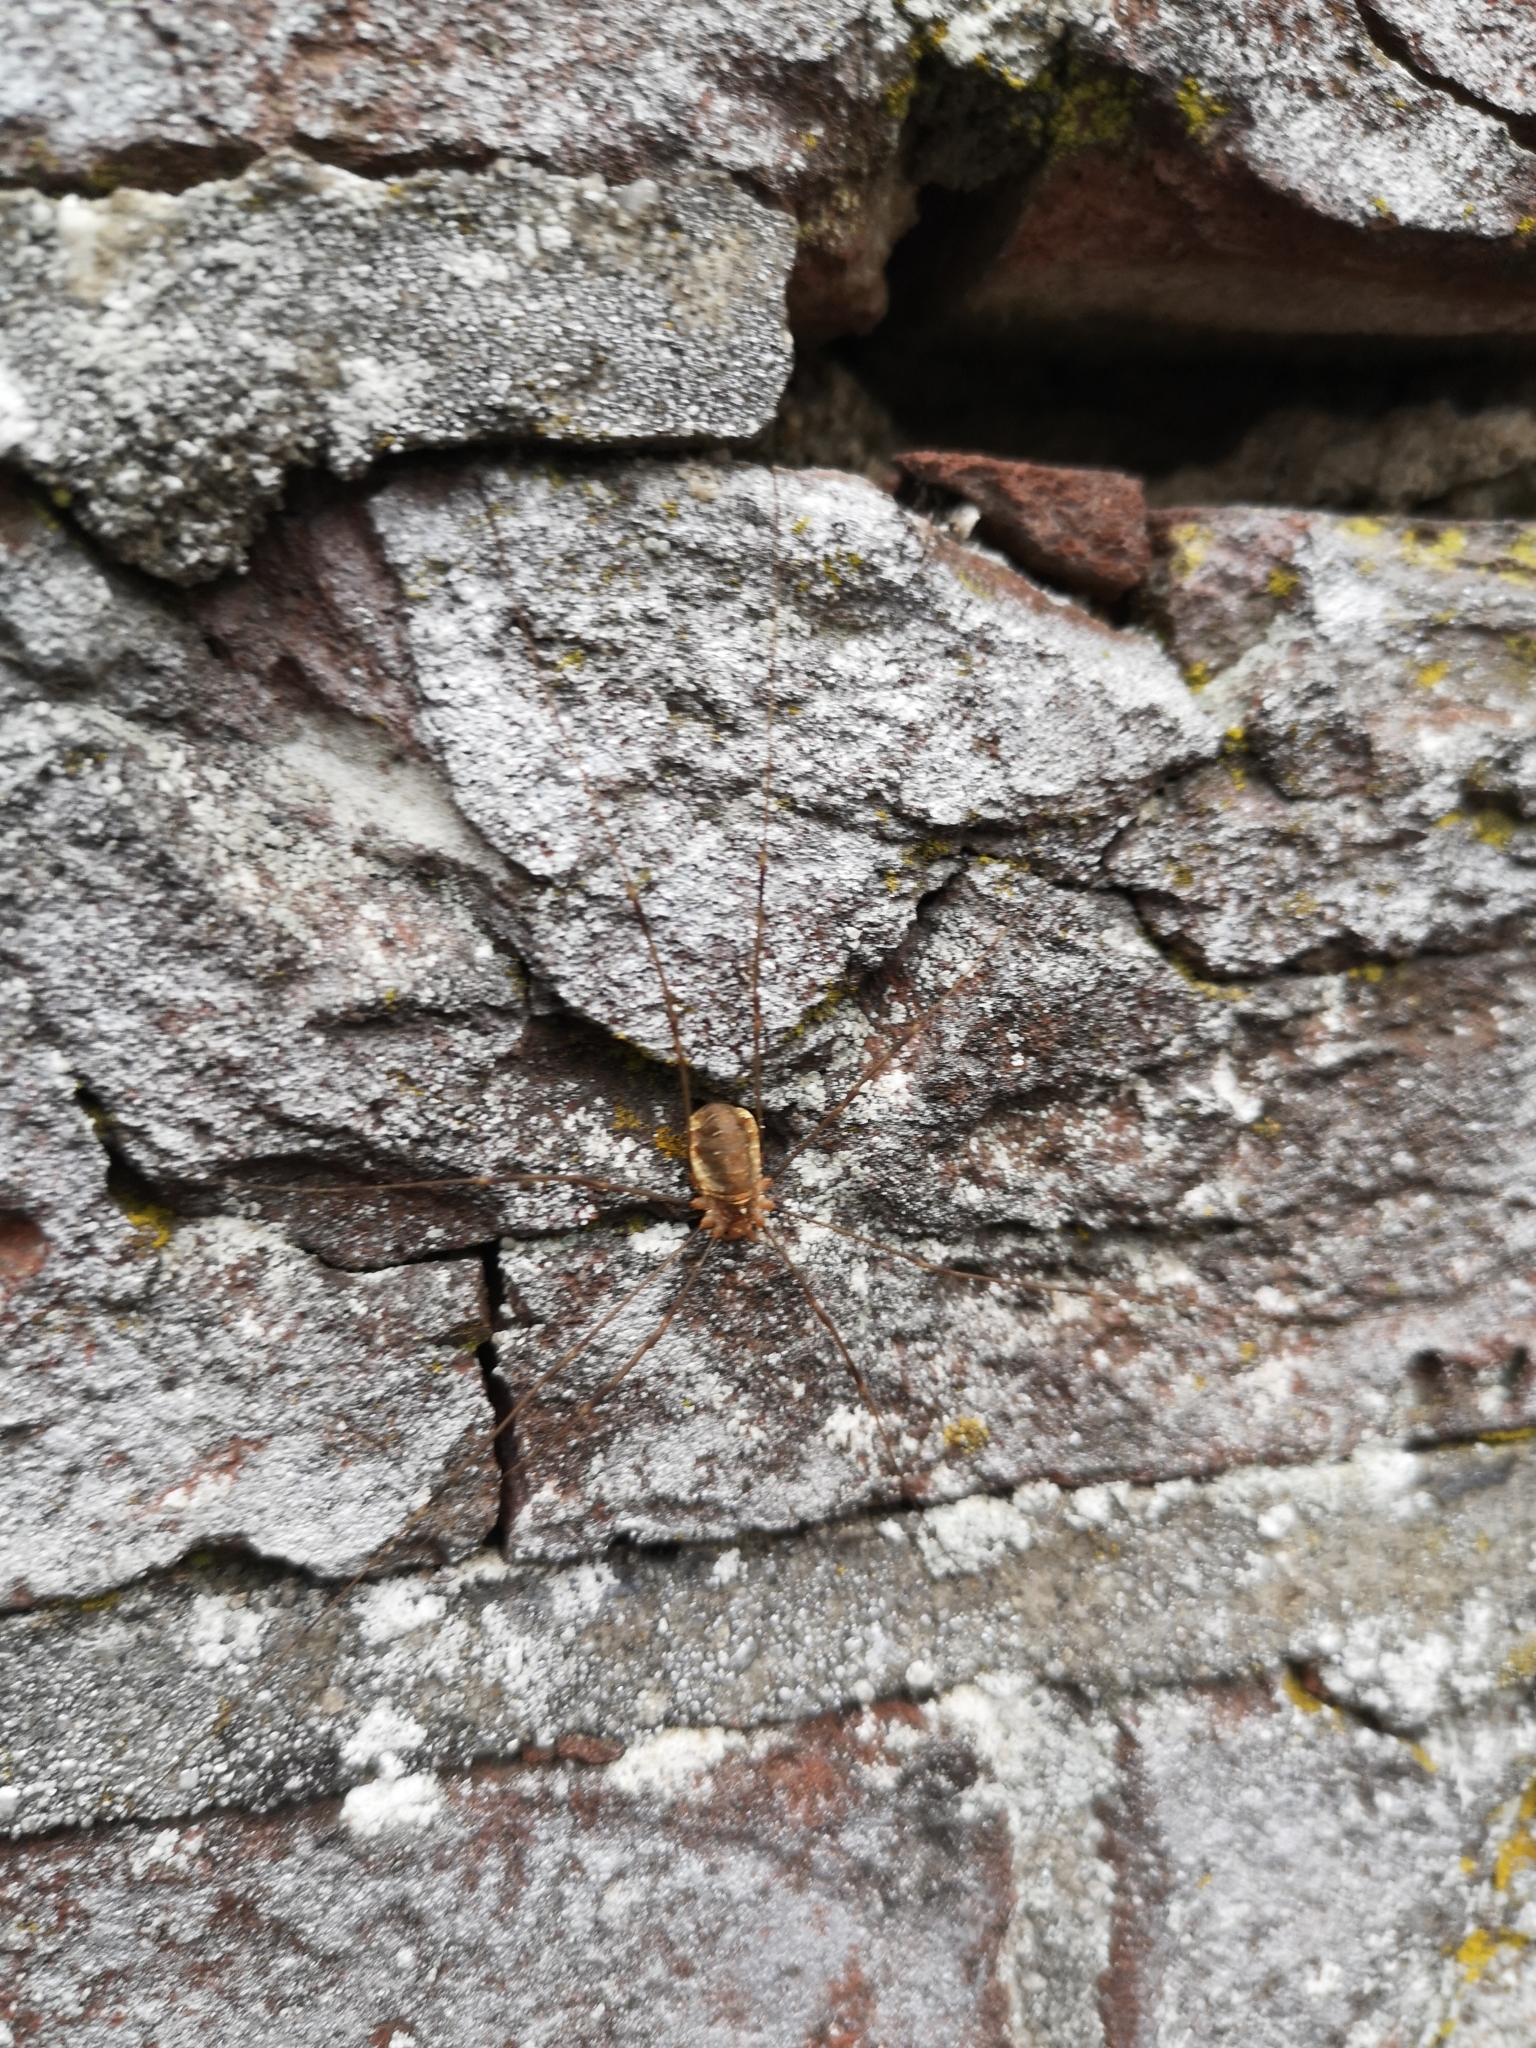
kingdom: Animalia
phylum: Arthropoda
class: Arachnida
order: Opiliones
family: Phalangiidae
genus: Opilio
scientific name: Opilio canestrinii
